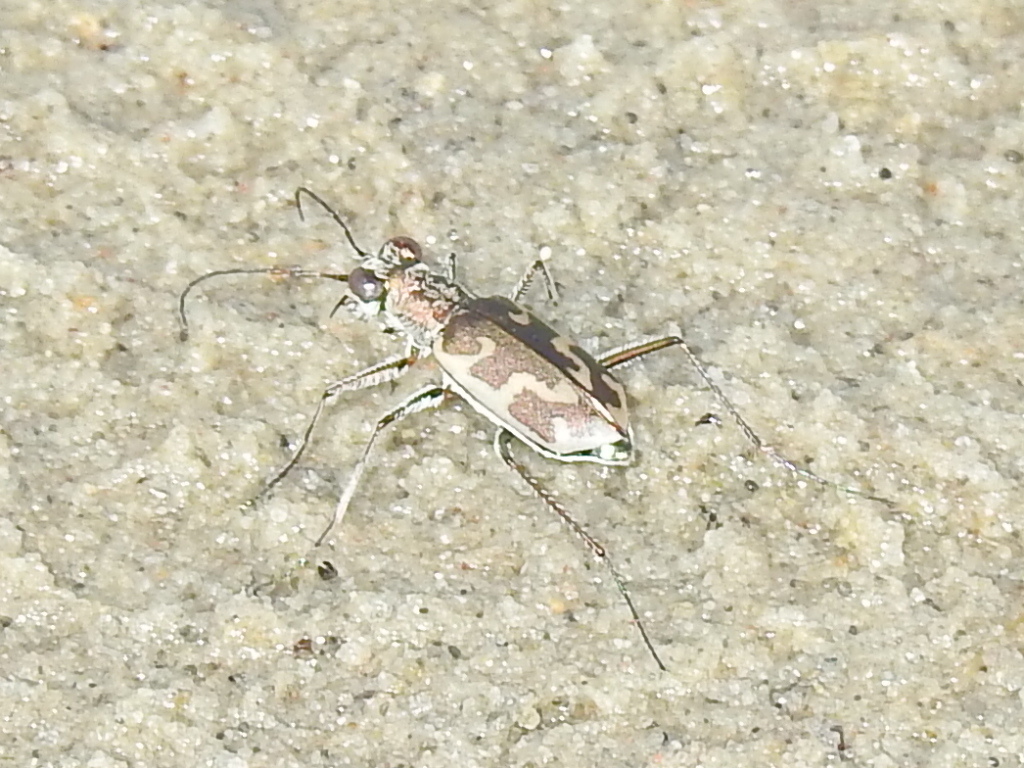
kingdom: Animalia
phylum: Arthropoda
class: Insecta
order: Coleoptera
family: Carabidae
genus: Ellipsoptera
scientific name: Ellipsoptera nevadica
